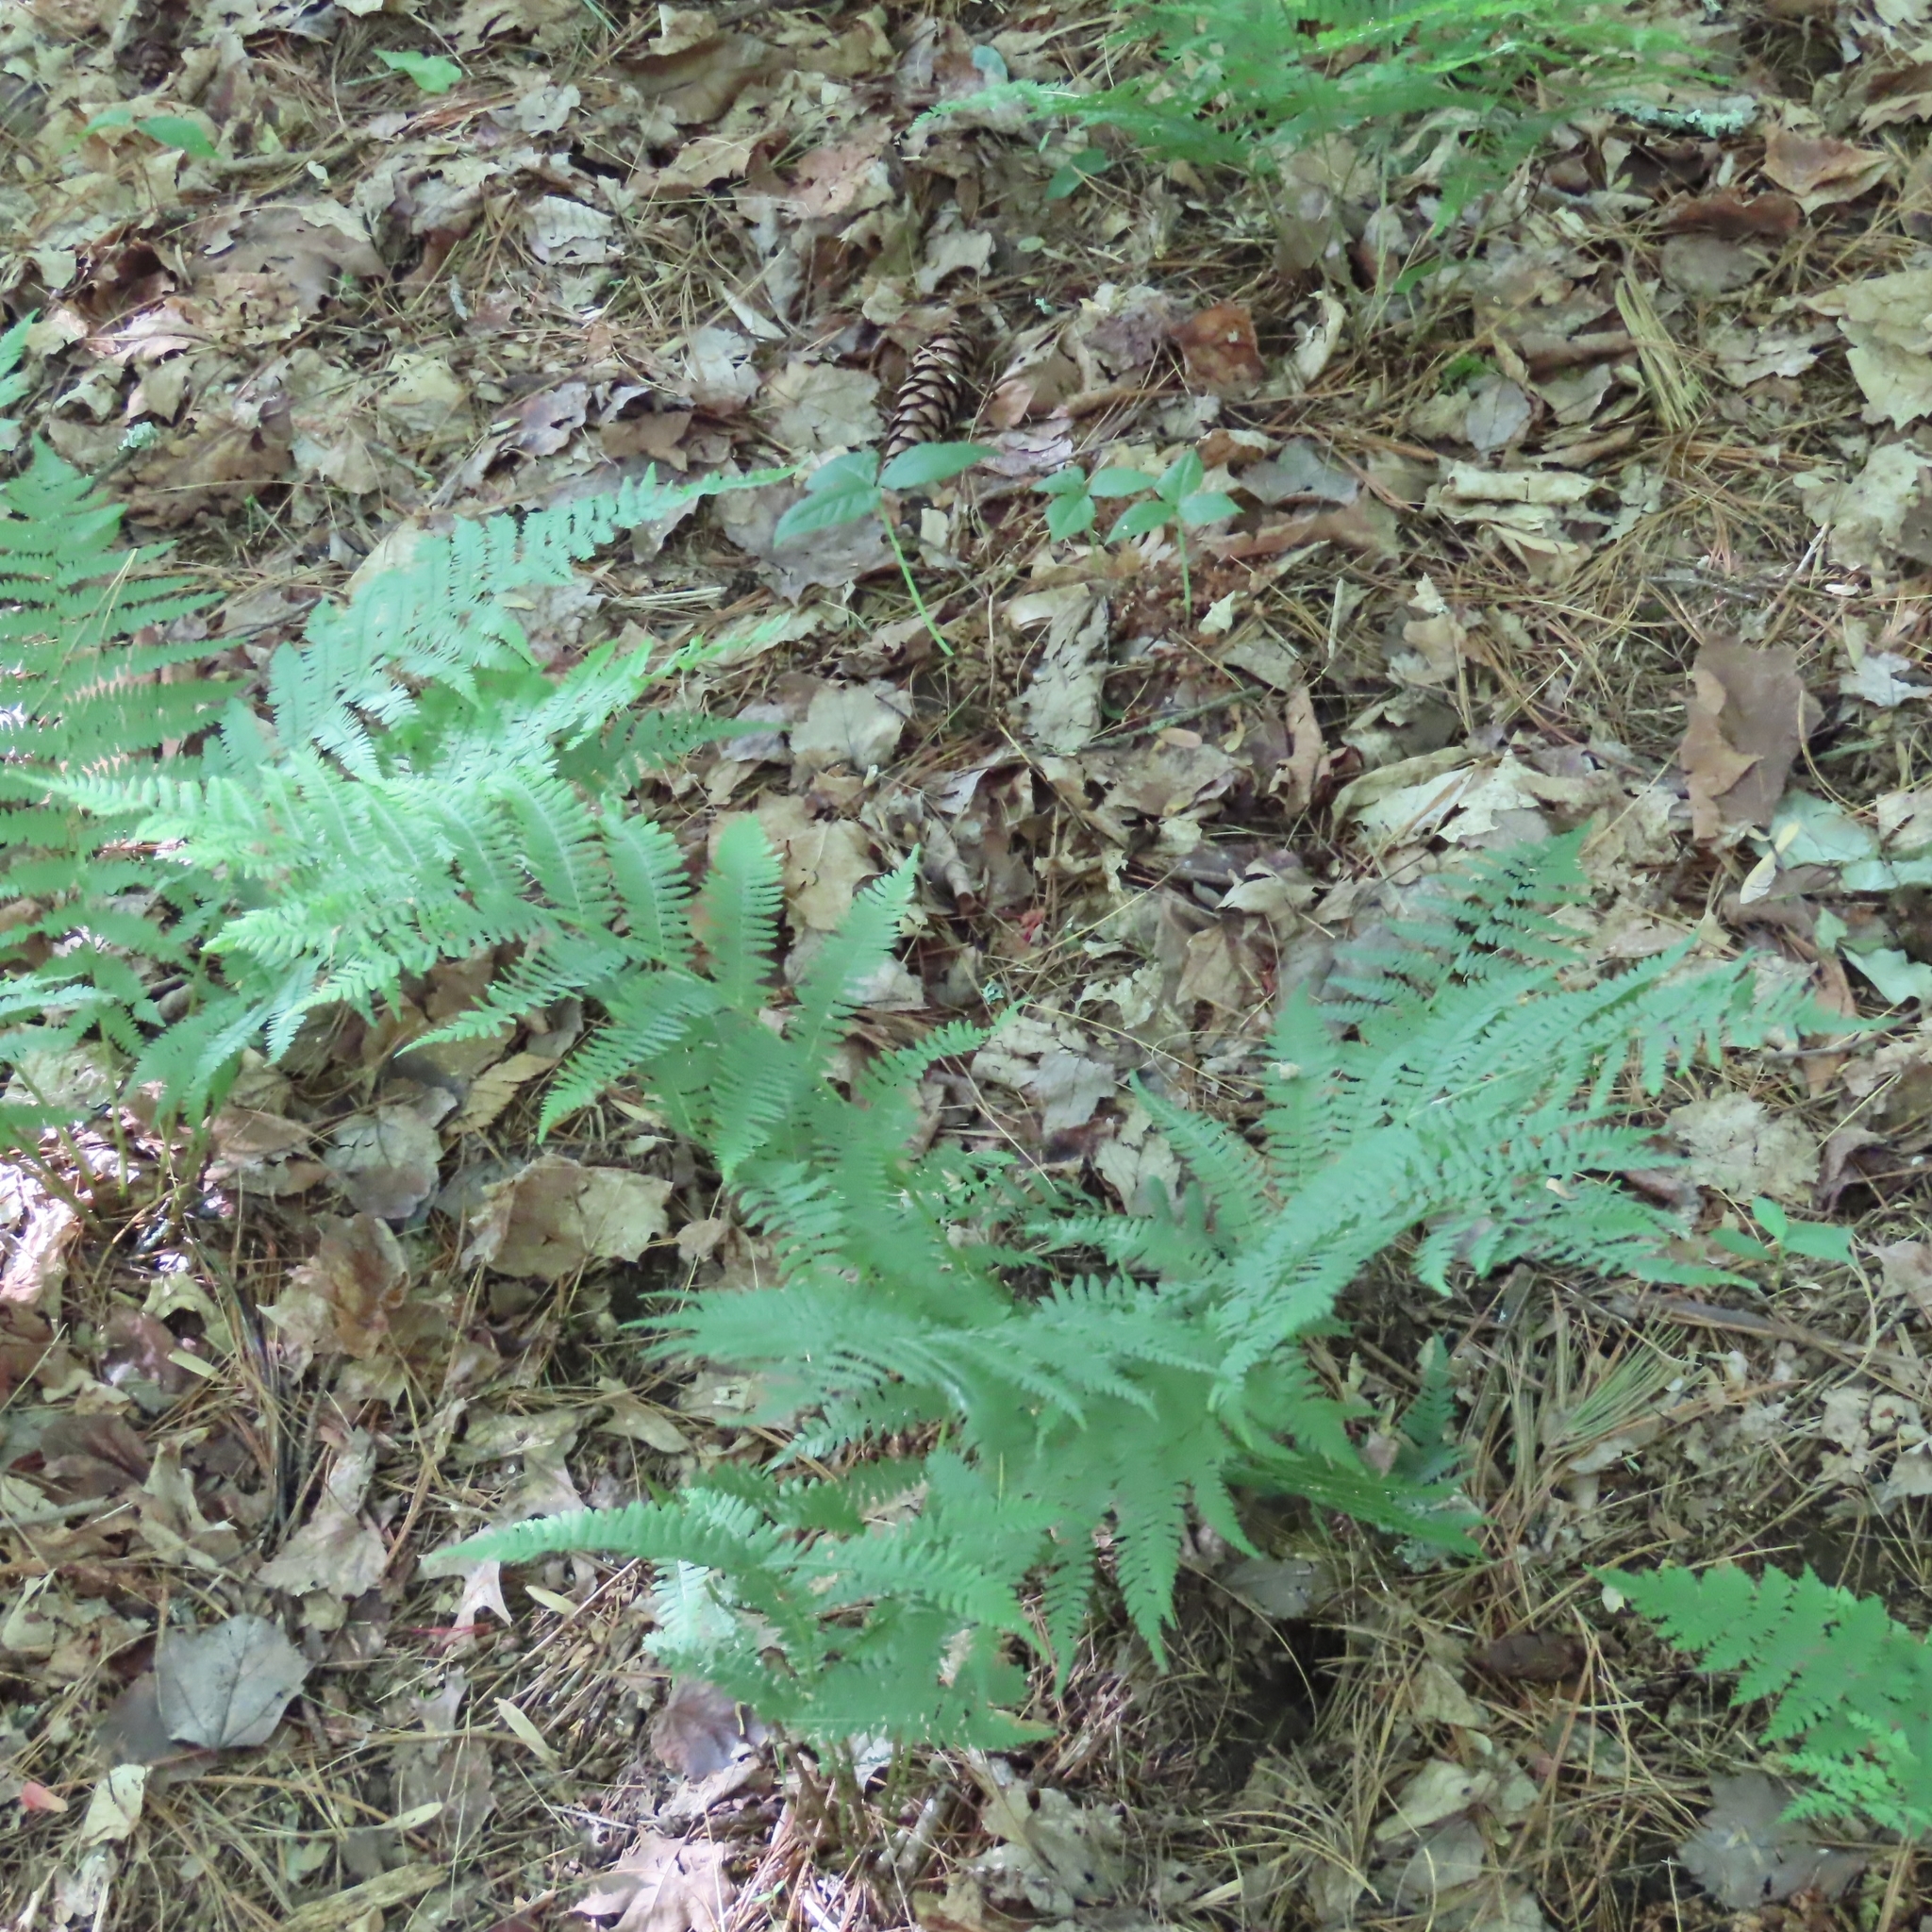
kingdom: Plantae
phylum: Tracheophyta
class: Polypodiopsida
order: Polypodiales
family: Athyriaceae
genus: Athyrium
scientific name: Athyrium angustum
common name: Northern lady fern
